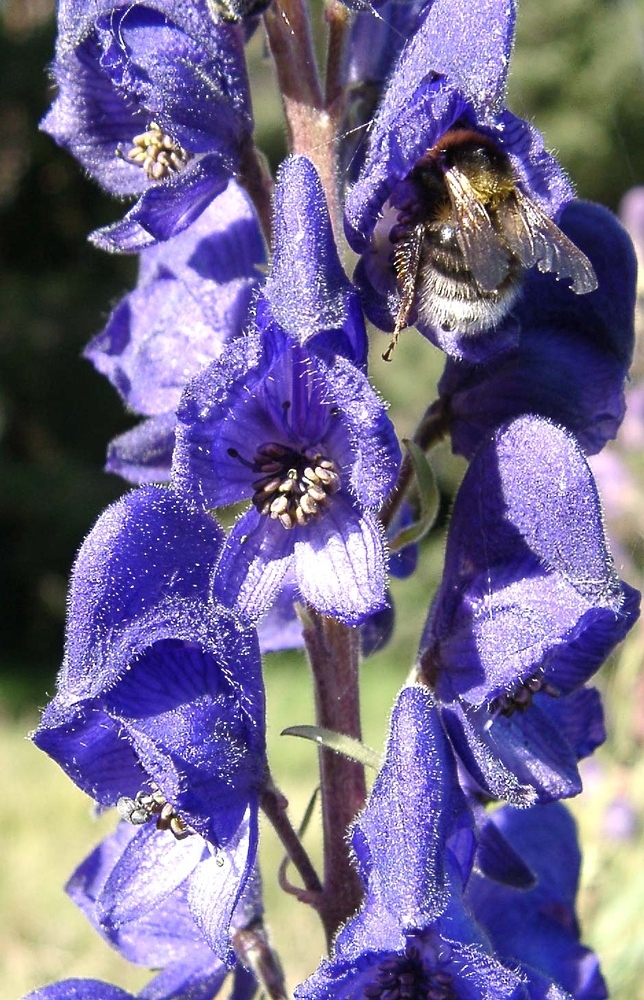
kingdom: Plantae
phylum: Tracheophyta
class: Magnoliopsida
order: Ranunculales
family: Ranunculaceae
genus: Aconitum
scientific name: Aconitum napellus
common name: Garden monkshood
